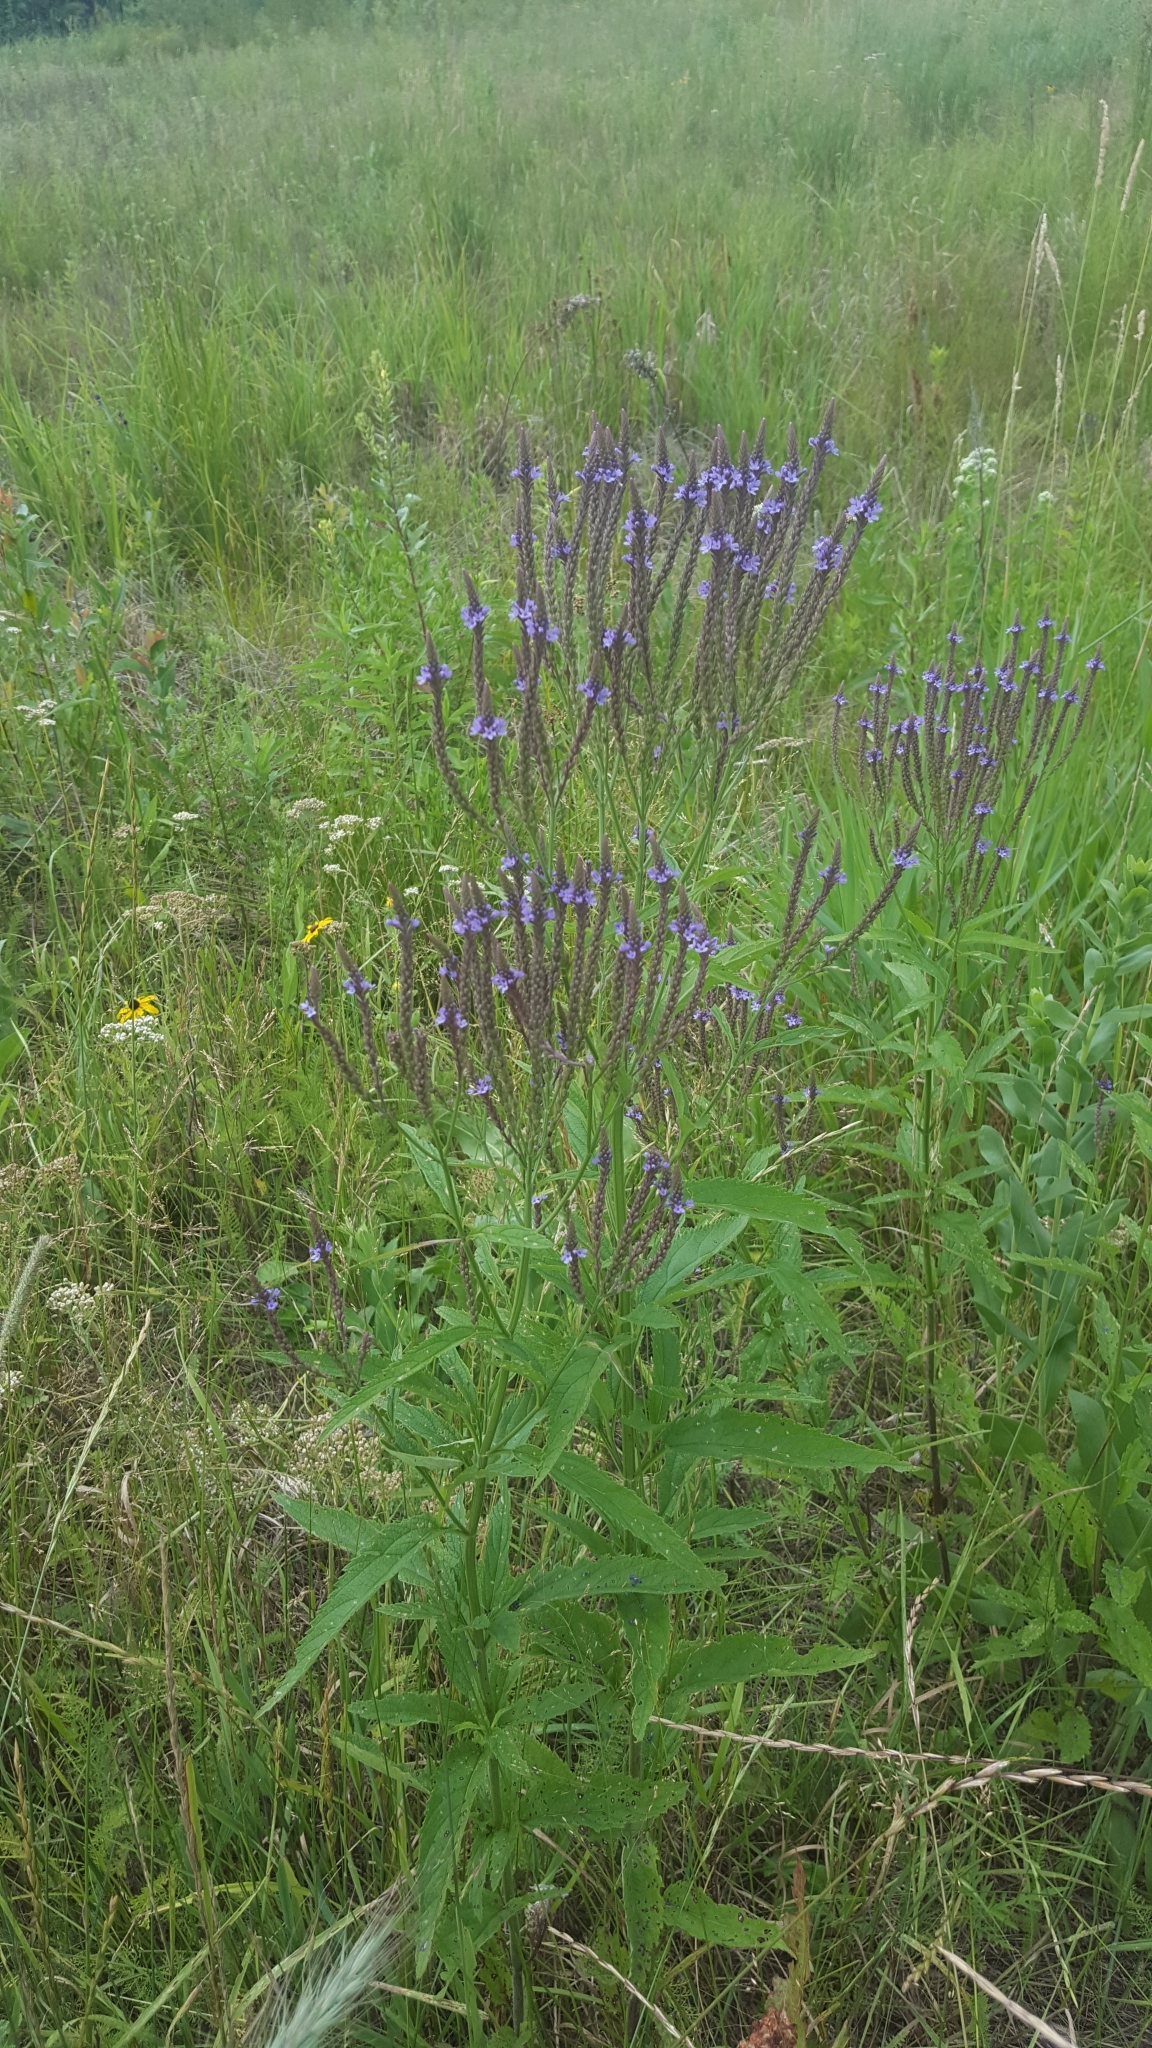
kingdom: Plantae
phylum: Tracheophyta
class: Magnoliopsida
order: Lamiales
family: Verbenaceae
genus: Verbena
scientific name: Verbena hastata
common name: American blue vervain
